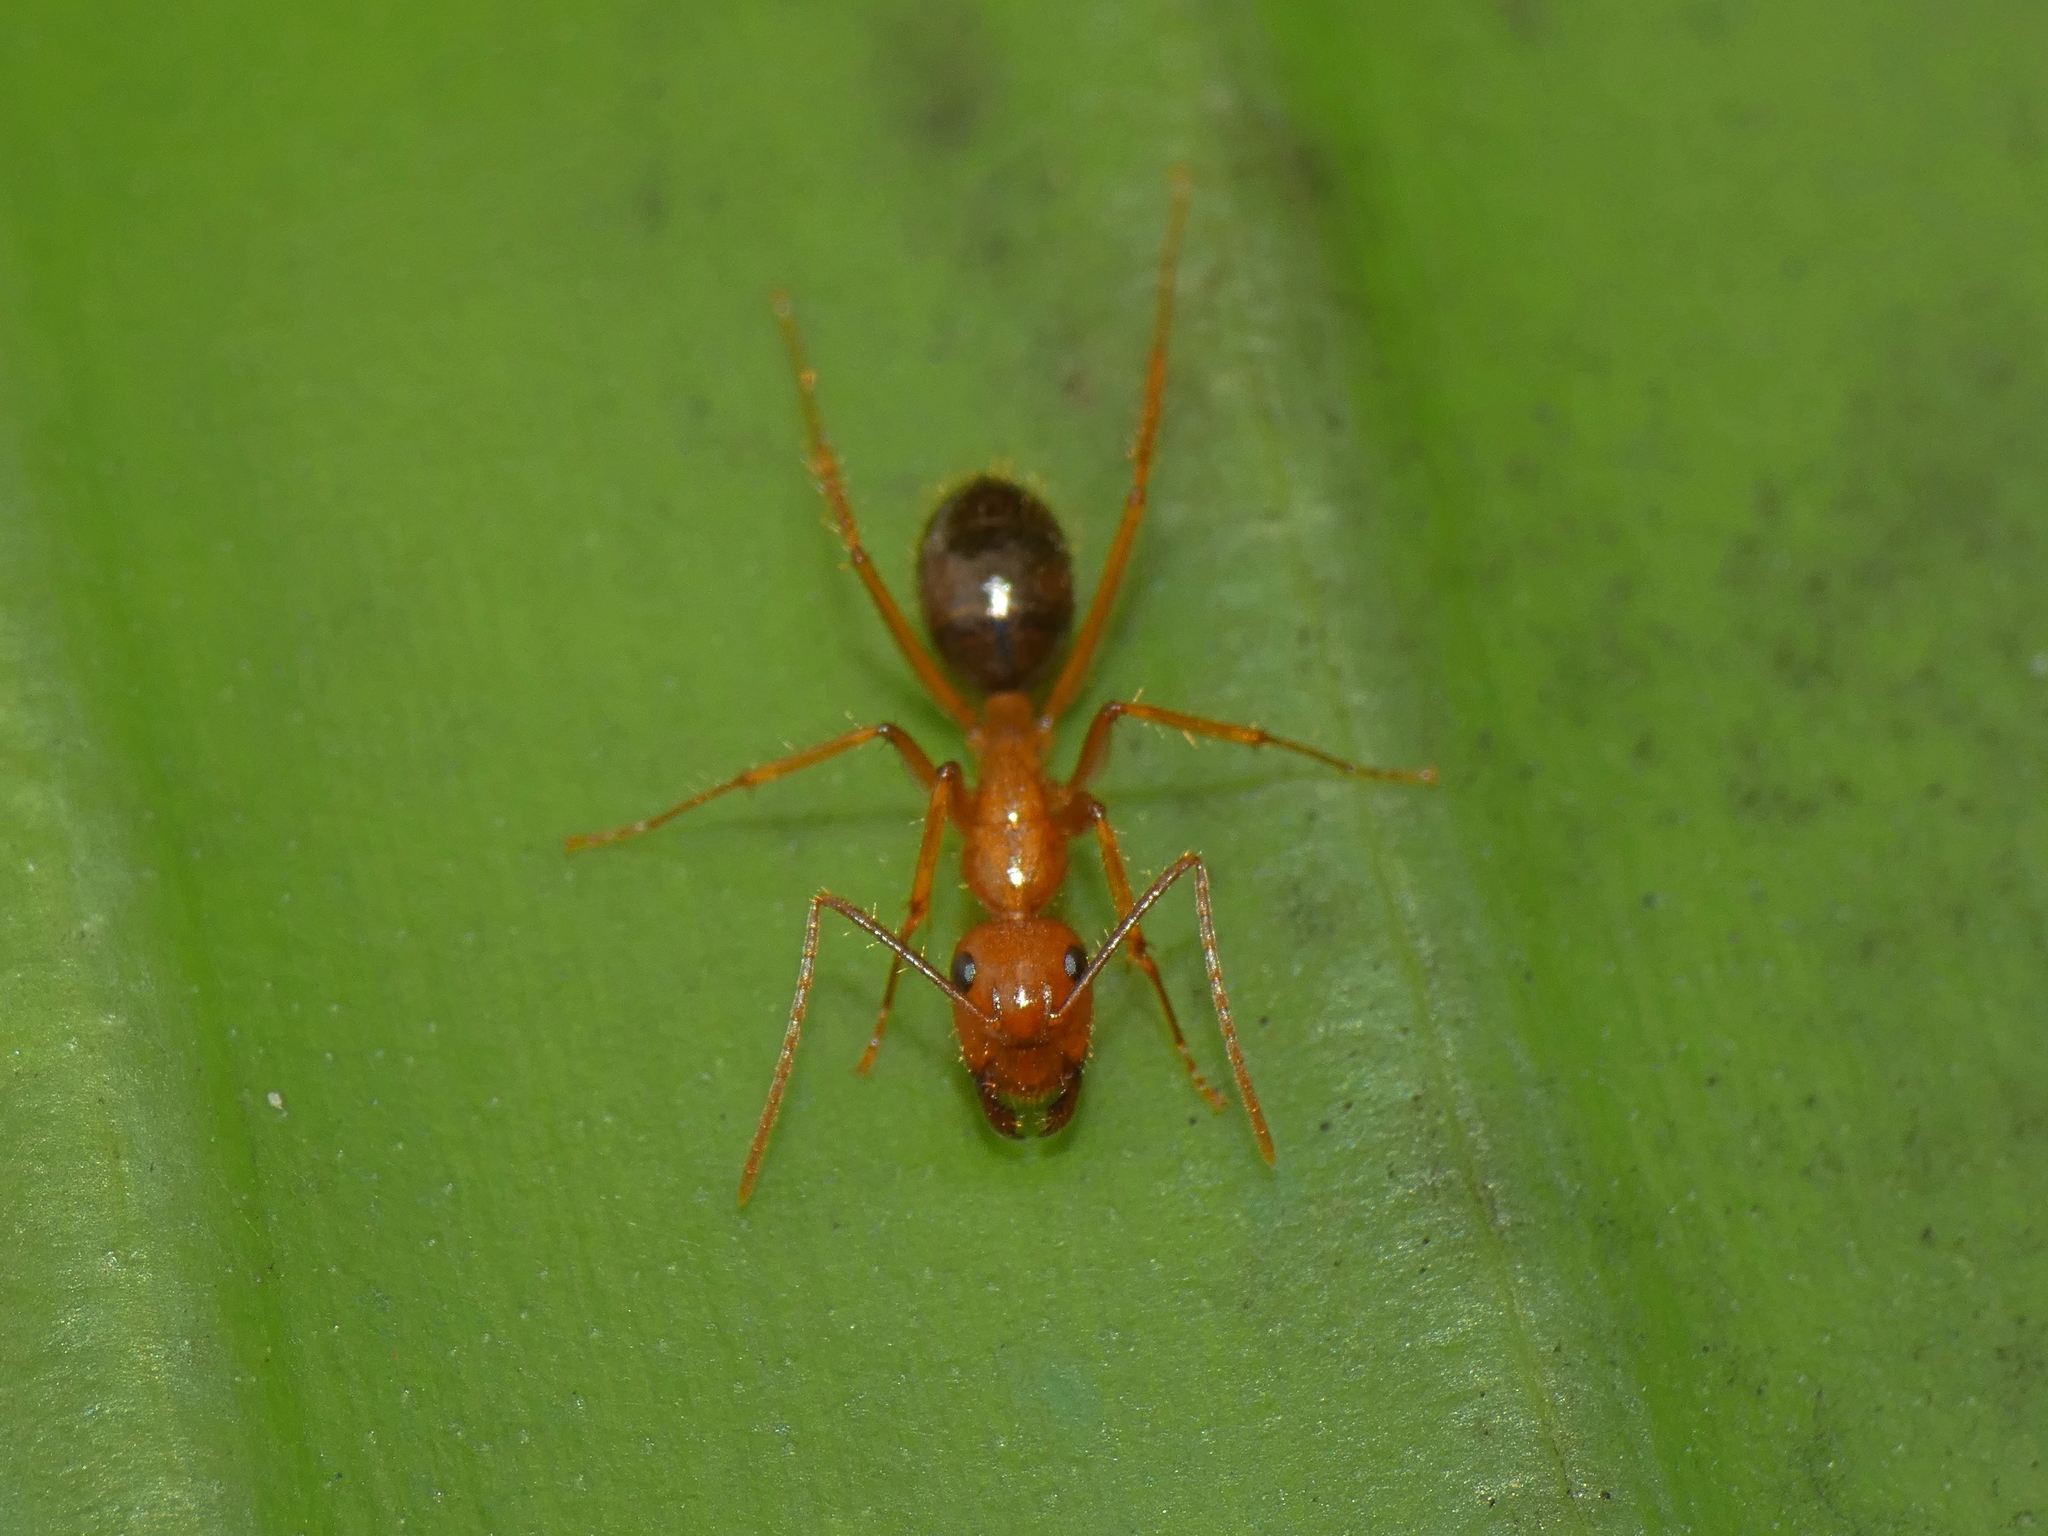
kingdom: Animalia
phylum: Arthropoda
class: Insecta
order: Hymenoptera
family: Formicidae
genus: Camponotus
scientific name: Camponotus floridanus
